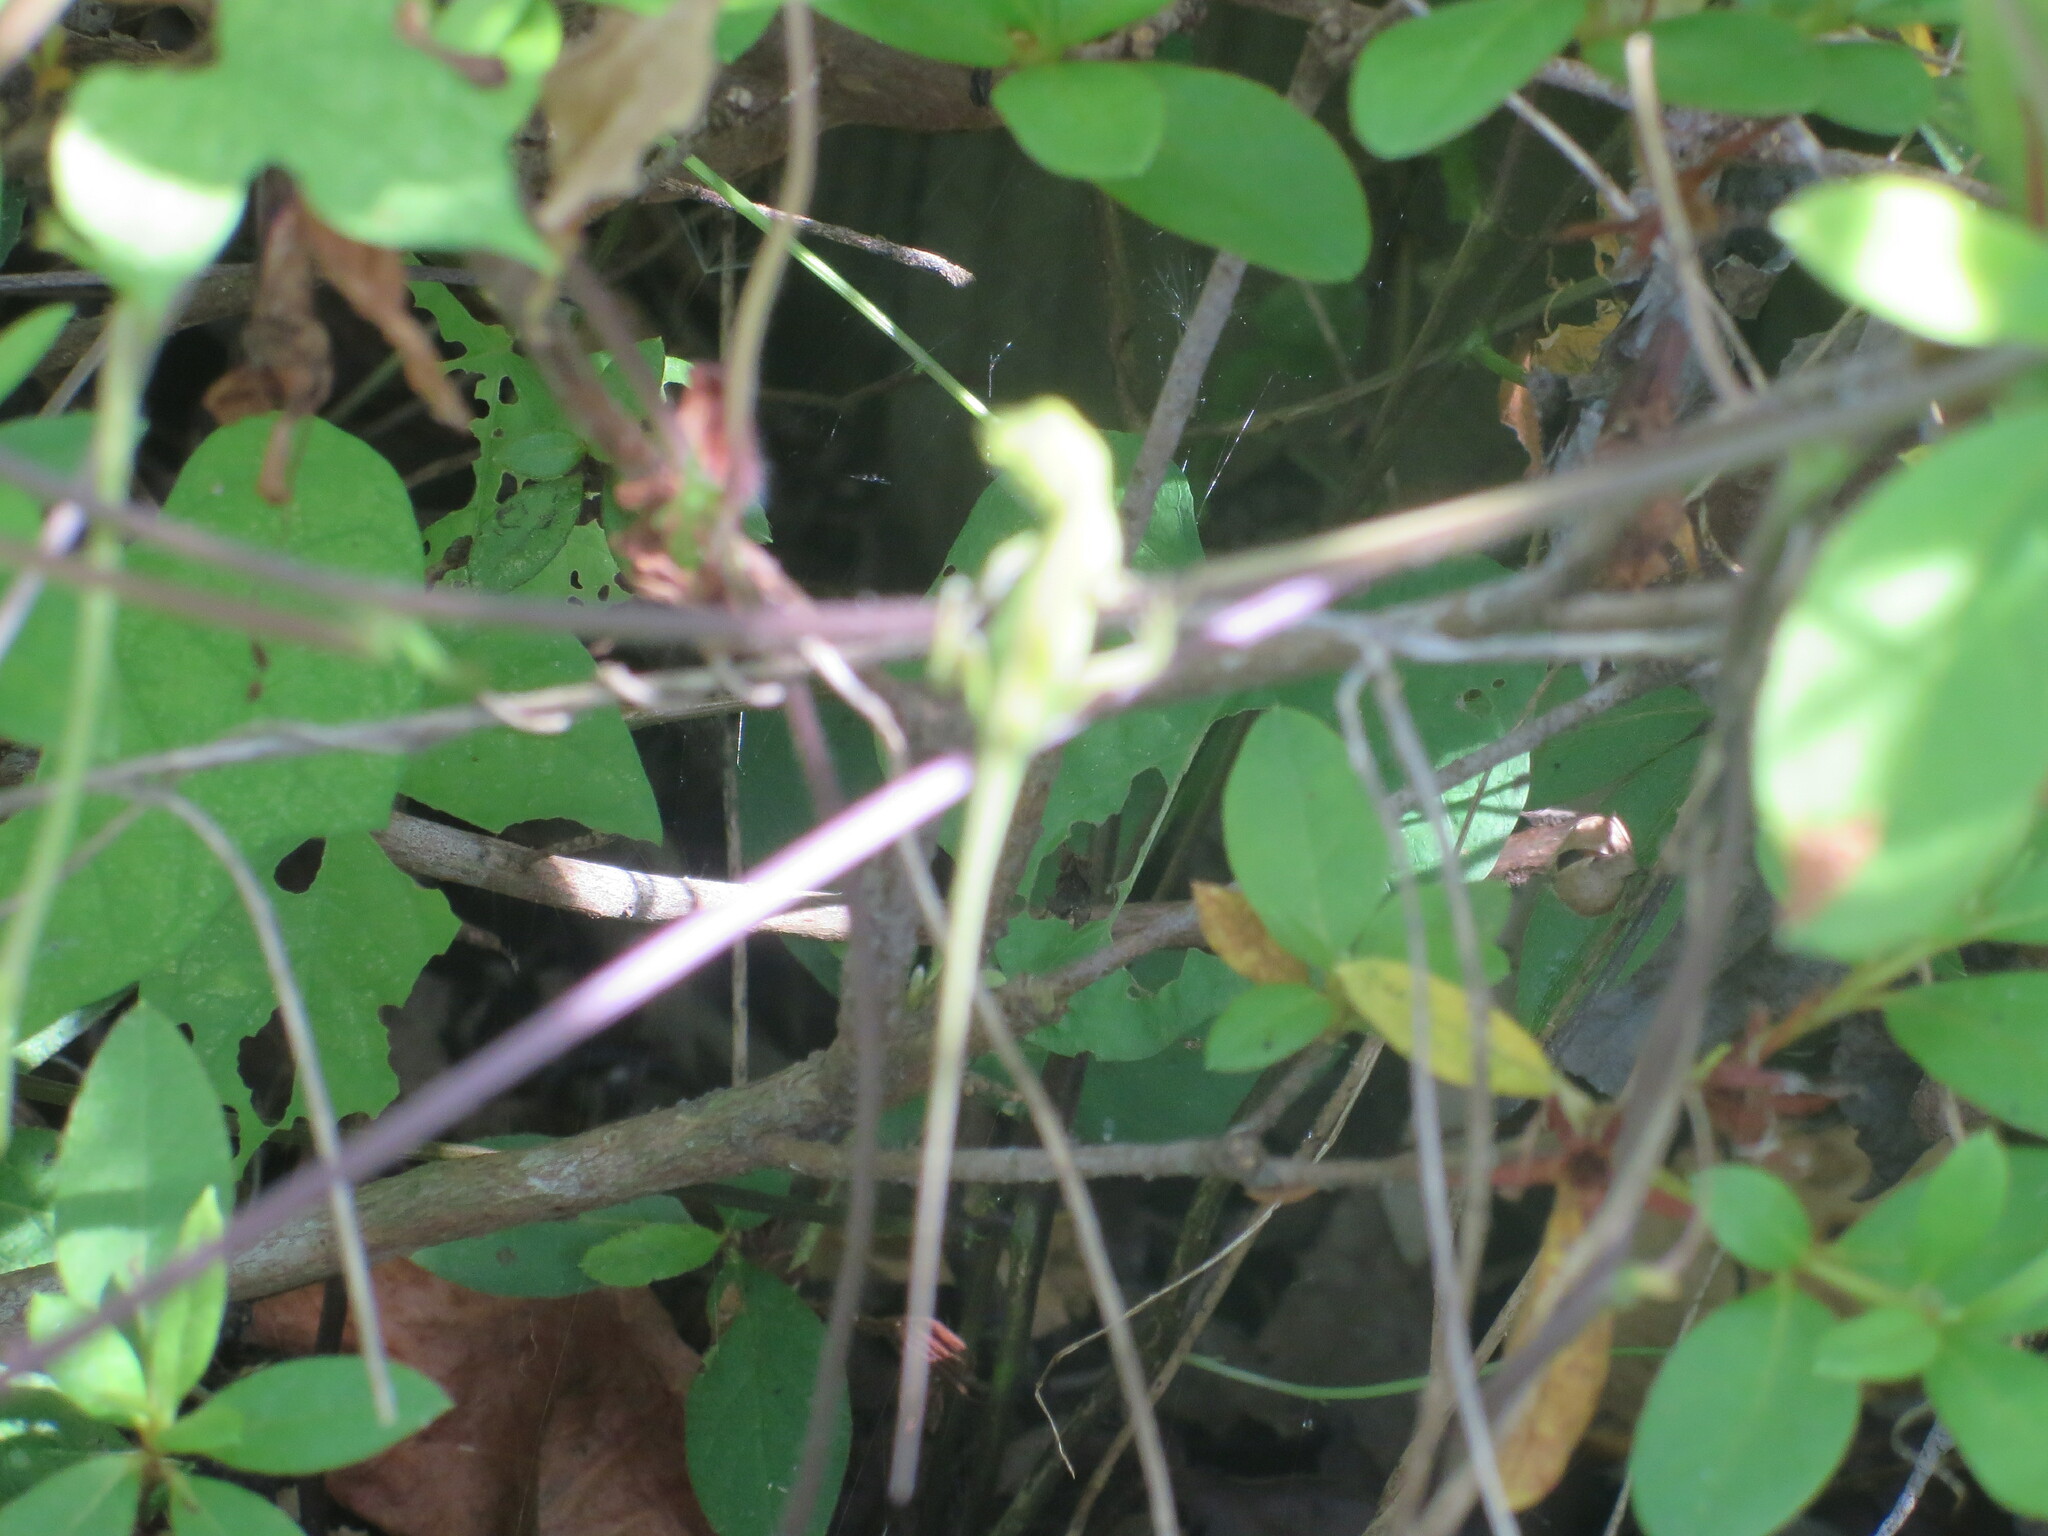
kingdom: Animalia
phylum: Chordata
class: Squamata
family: Dactyloidae
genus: Anolis
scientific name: Anolis carolinensis
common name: Green anole
